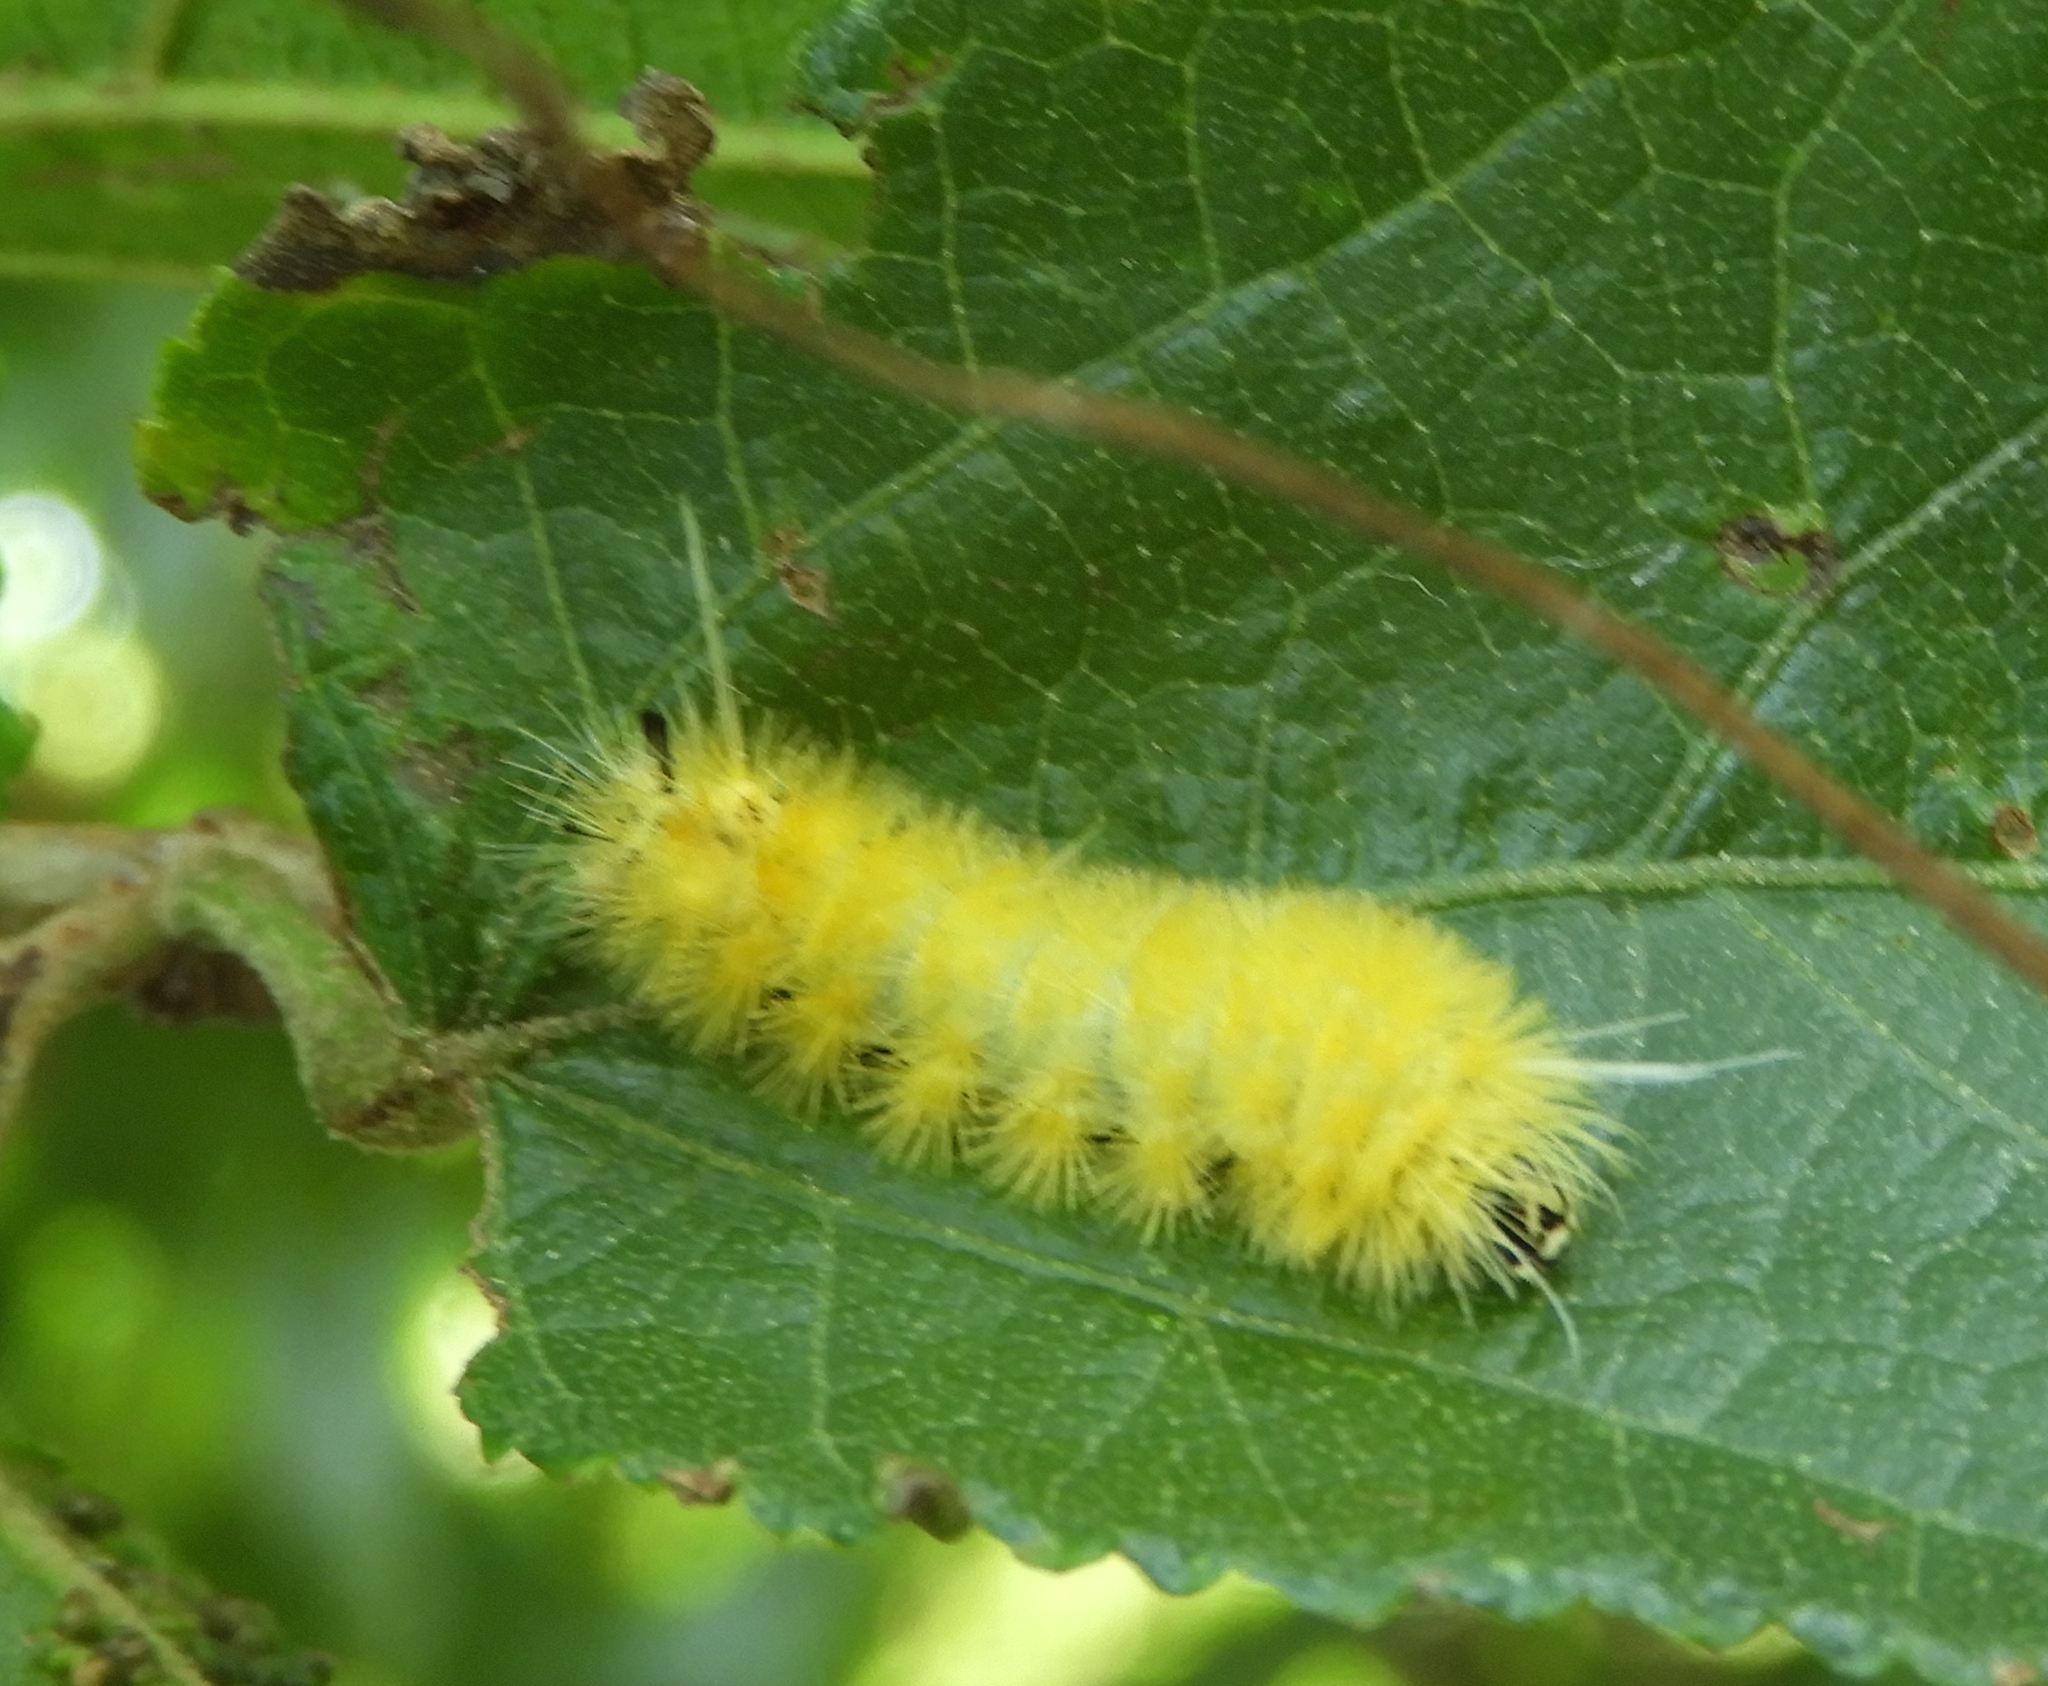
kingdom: Animalia
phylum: Arthropoda
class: Insecta
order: Lepidoptera
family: Erebidae
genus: Lophocampa
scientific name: Lophocampa annulosa
